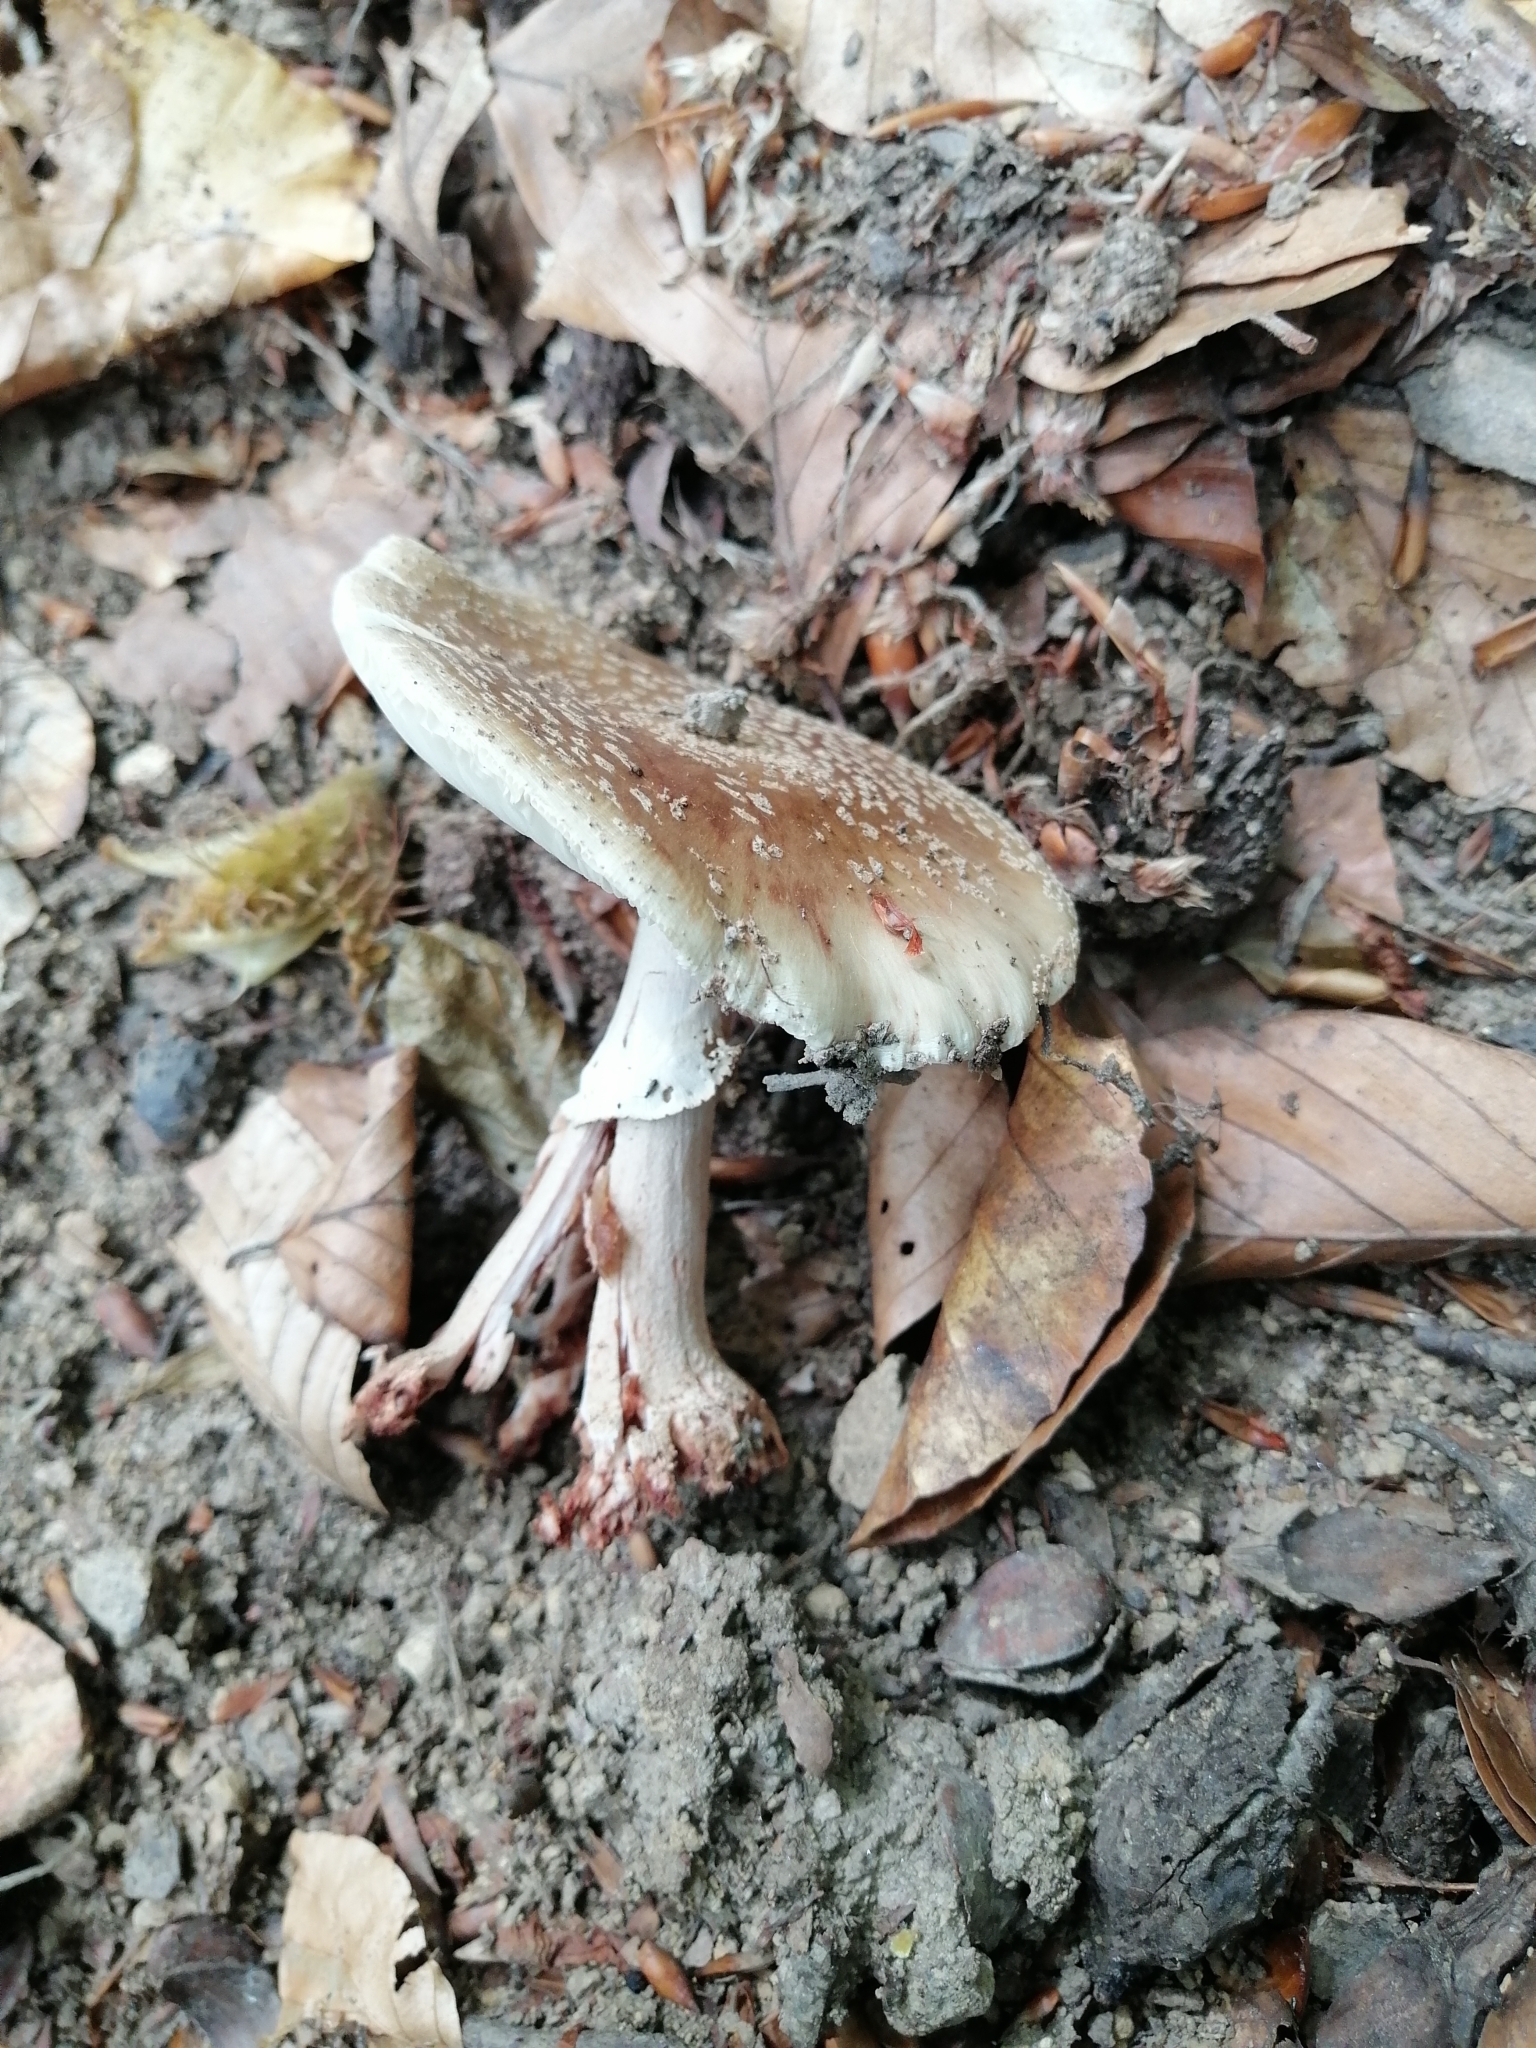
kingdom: Fungi
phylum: Basidiomycota
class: Agaricomycetes
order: Agaricales
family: Amanitaceae
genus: Amanita
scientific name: Amanita rubescens
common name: Blusher
